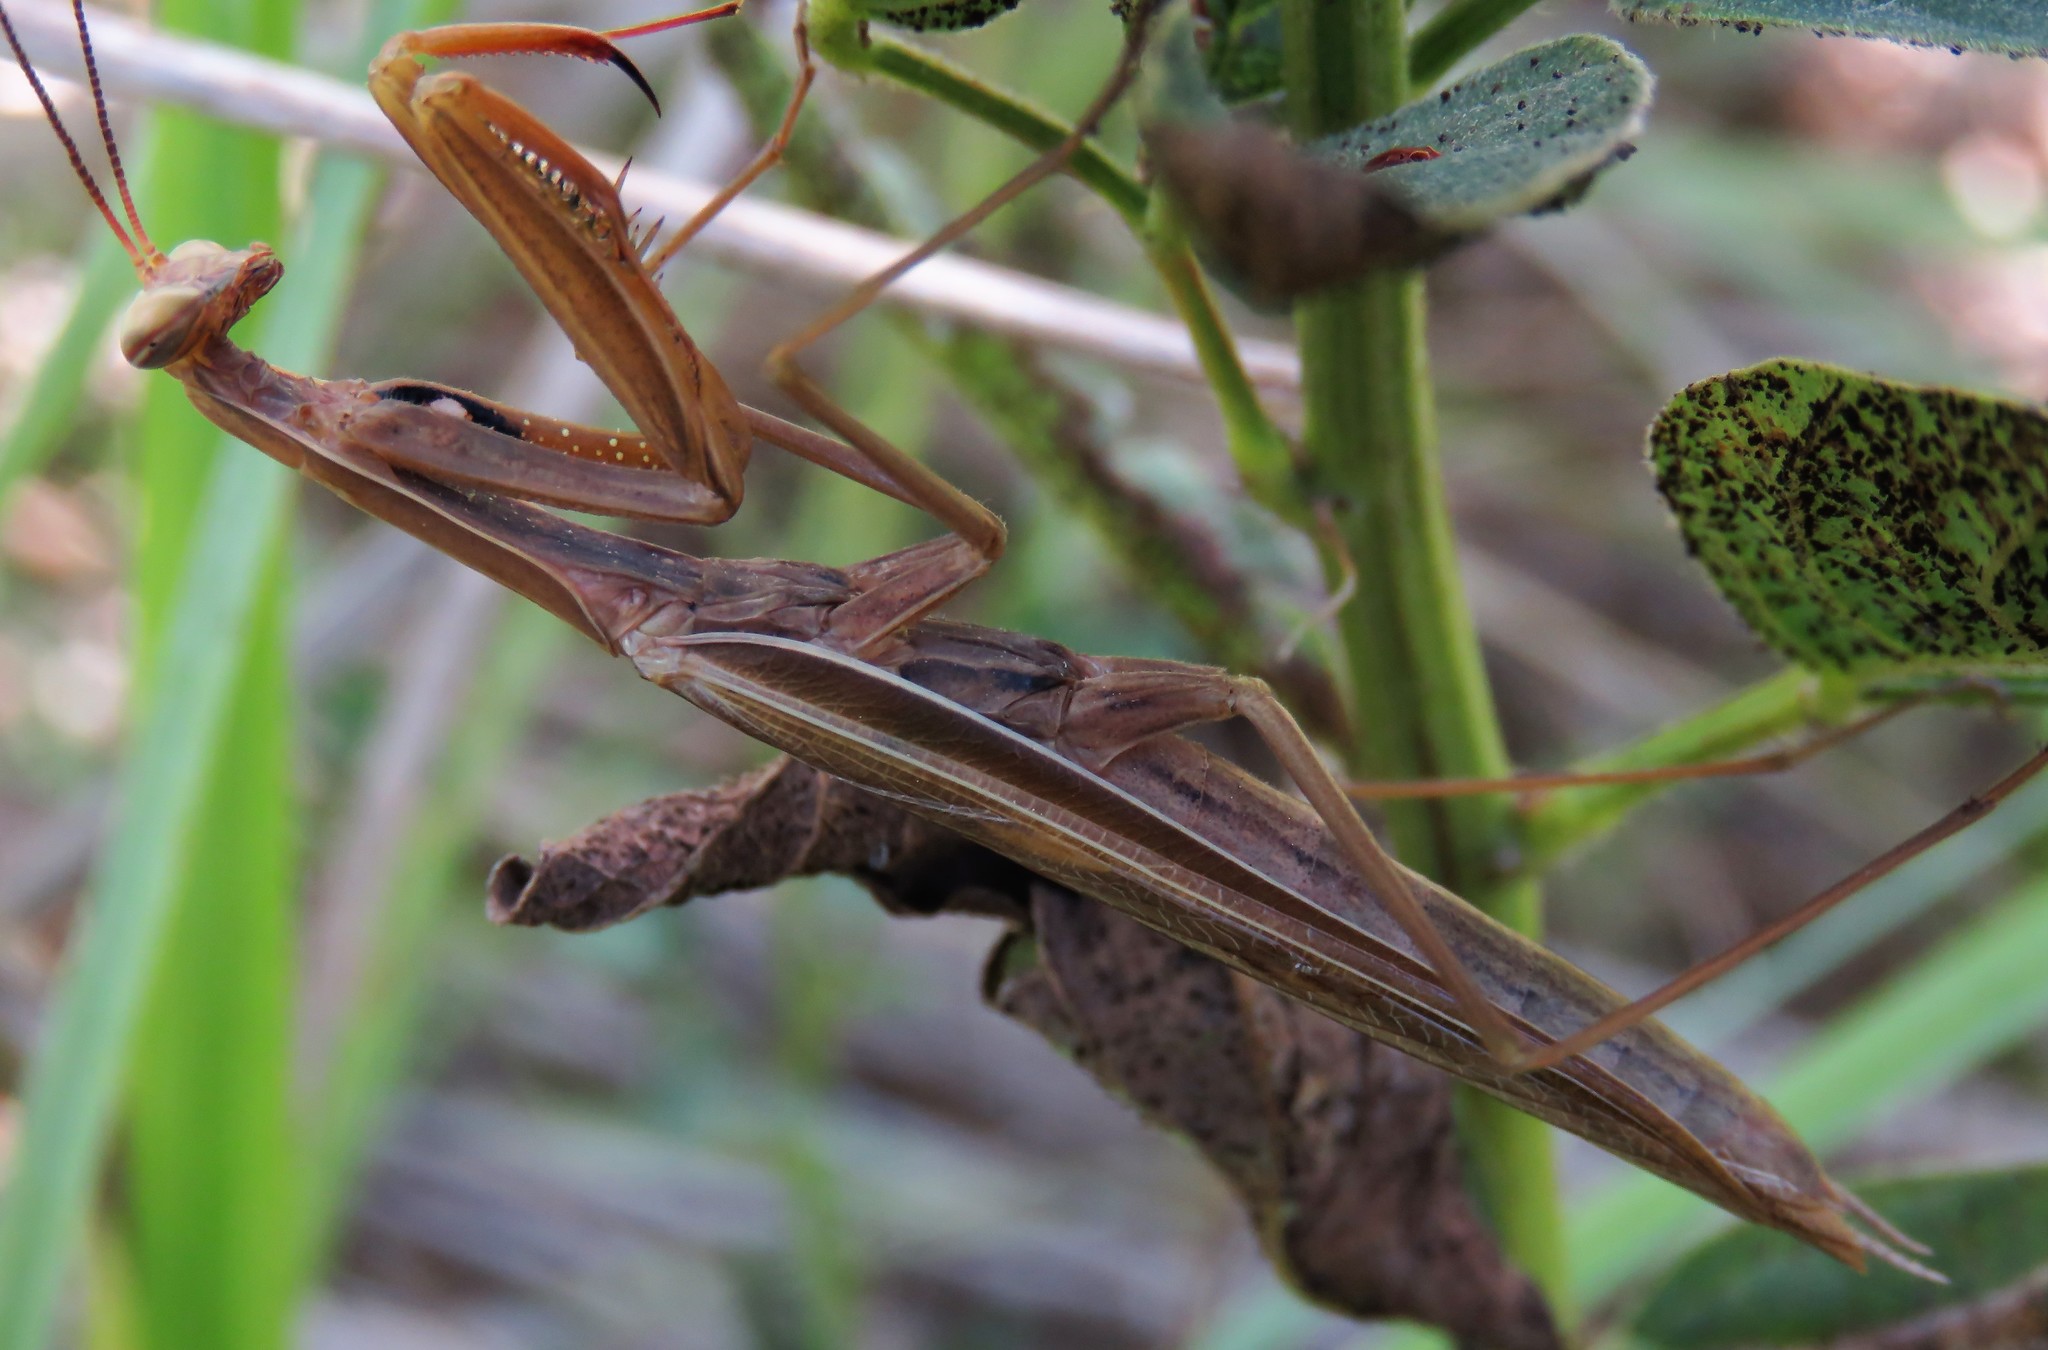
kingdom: Animalia
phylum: Arthropoda
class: Insecta
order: Mantodea
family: Mantidae
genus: Mantis
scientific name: Mantis religiosa
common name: Praying mantis
